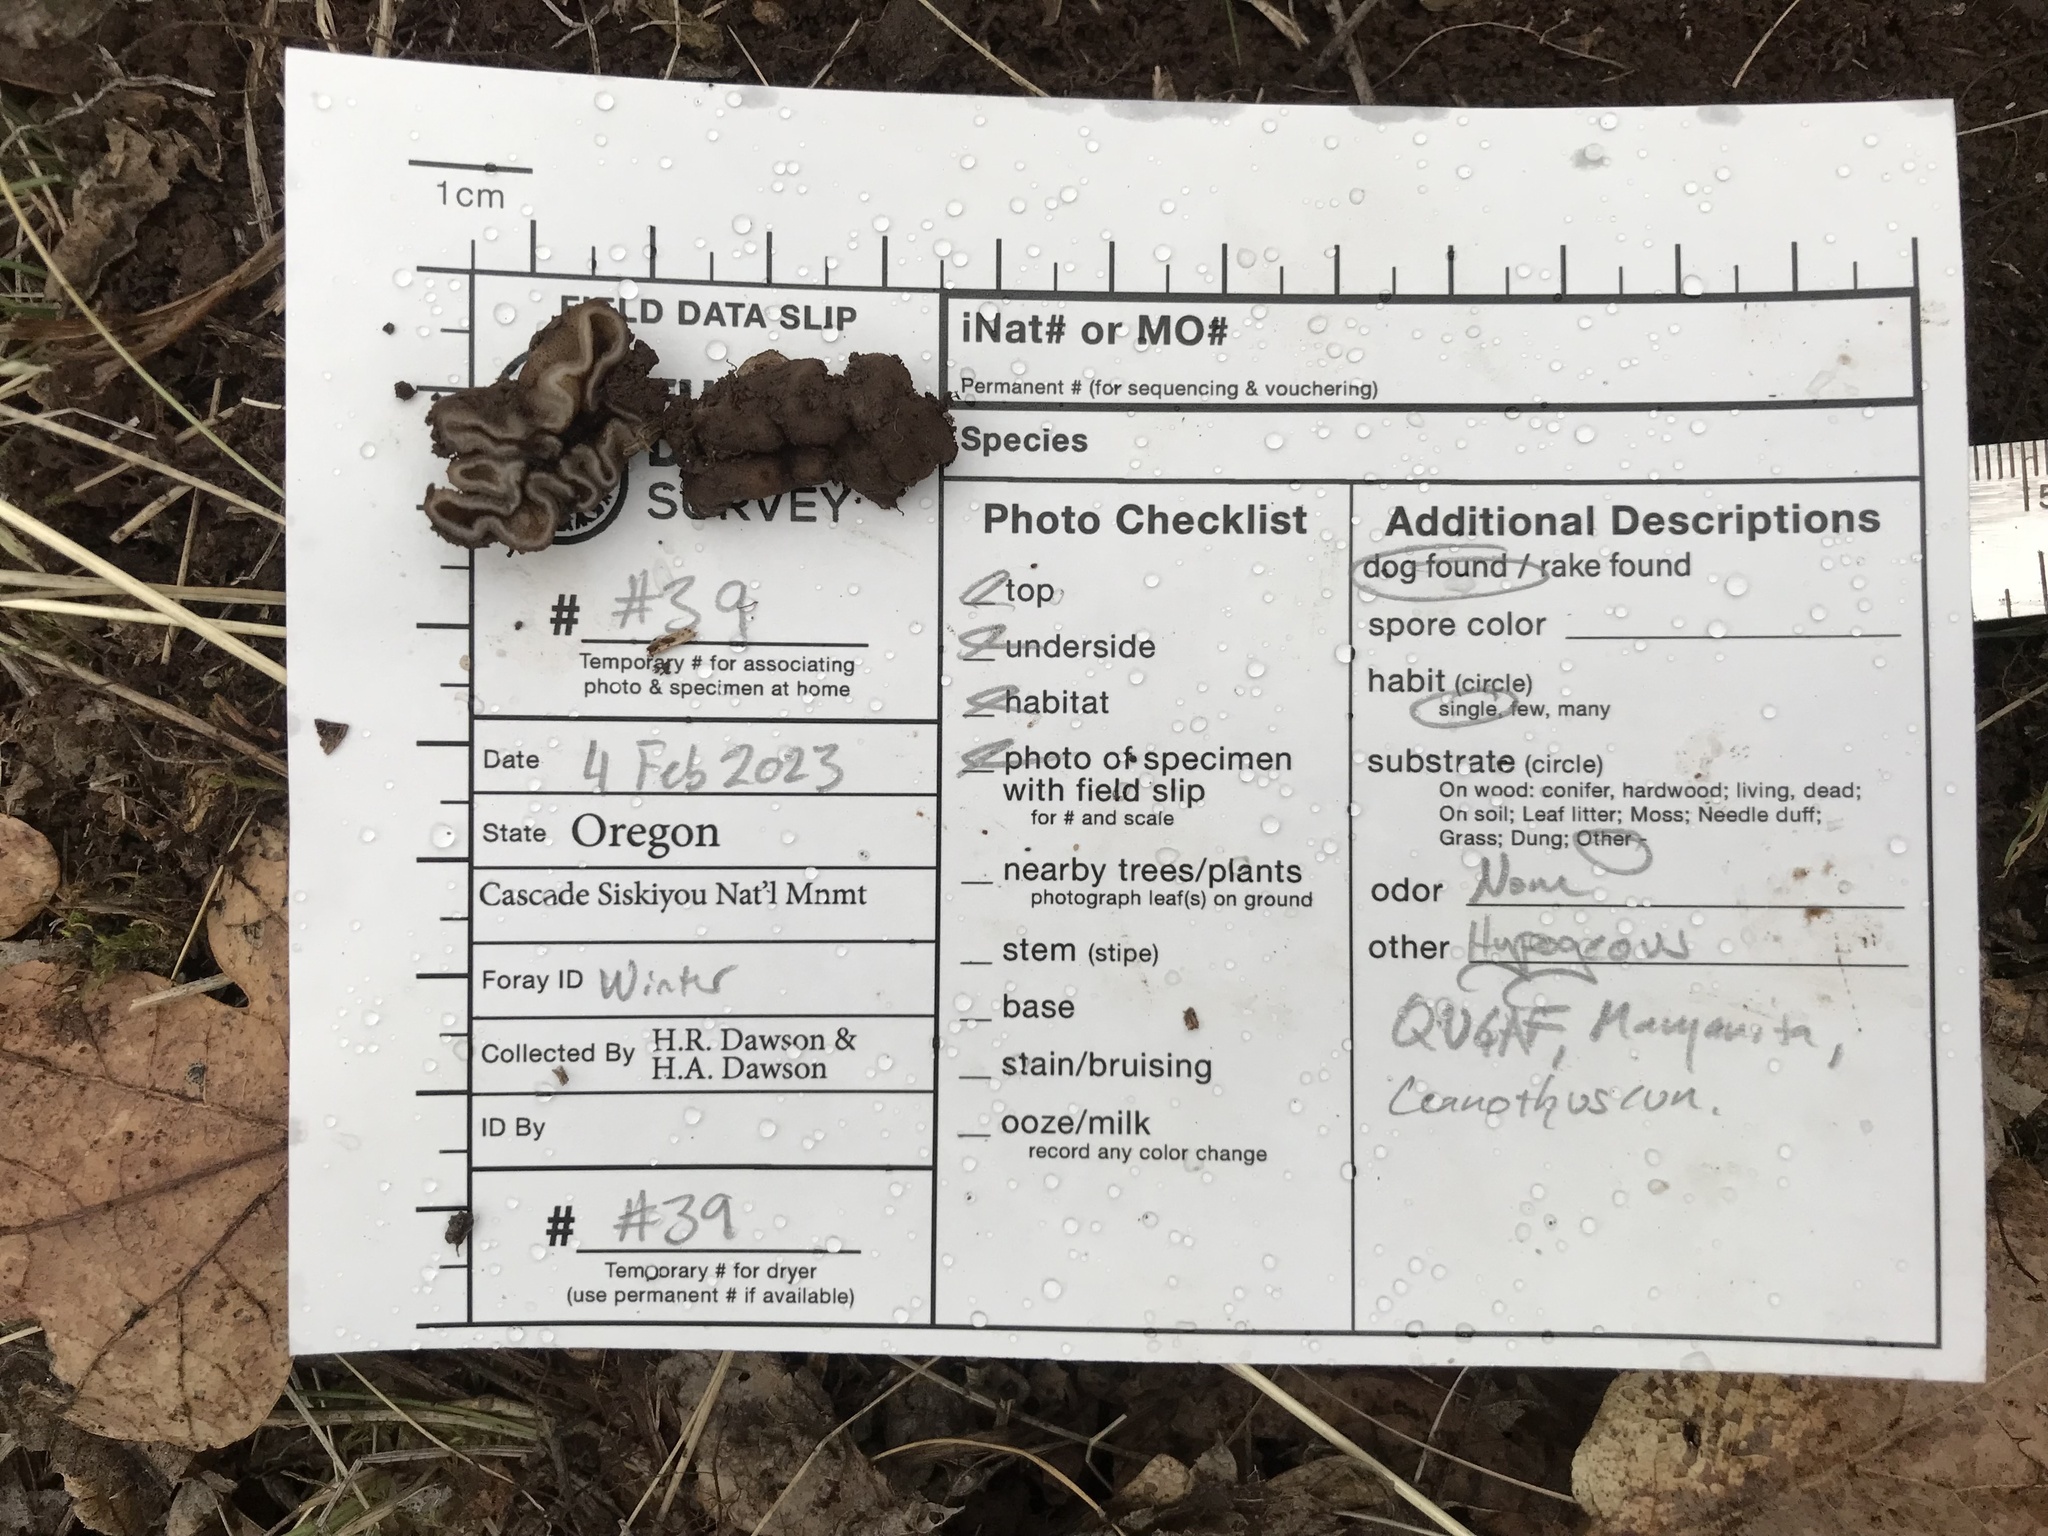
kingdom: Fungi
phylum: Ascomycota
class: Pezizomycetes
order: Pezizales
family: Pyronemataceae
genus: Genea
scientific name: Genea arenaria
